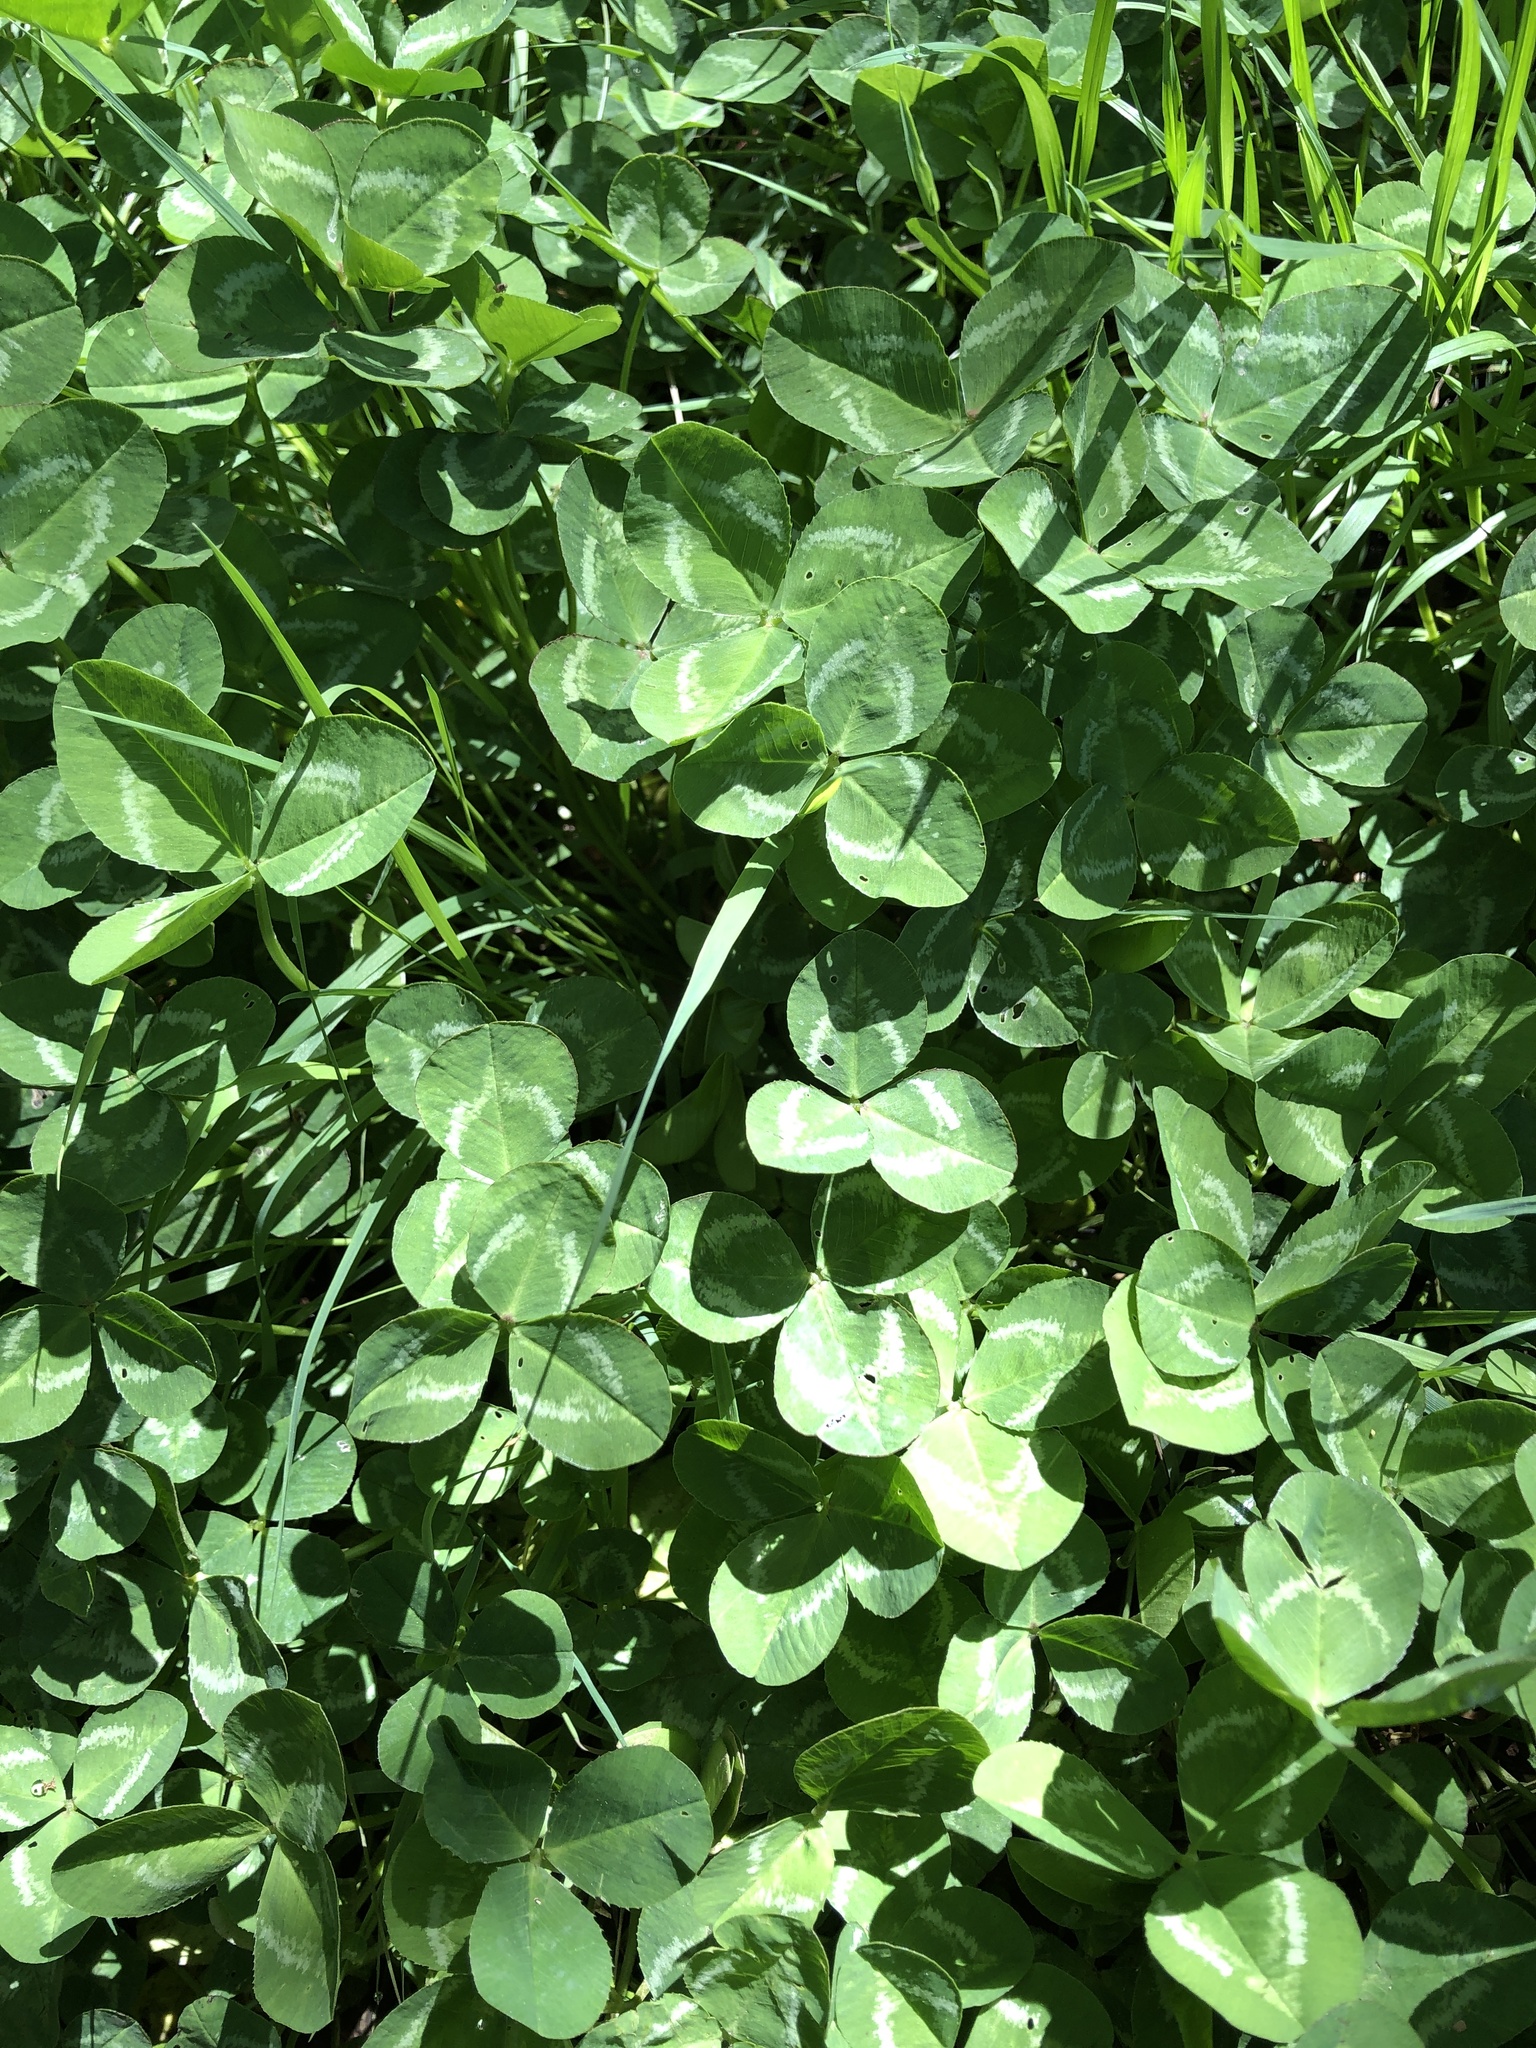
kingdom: Plantae
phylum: Tracheophyta
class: Magnoliopsida
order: Fabales
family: Fabaceae
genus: Trifolium
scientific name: Trifolium repens
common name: White clover
